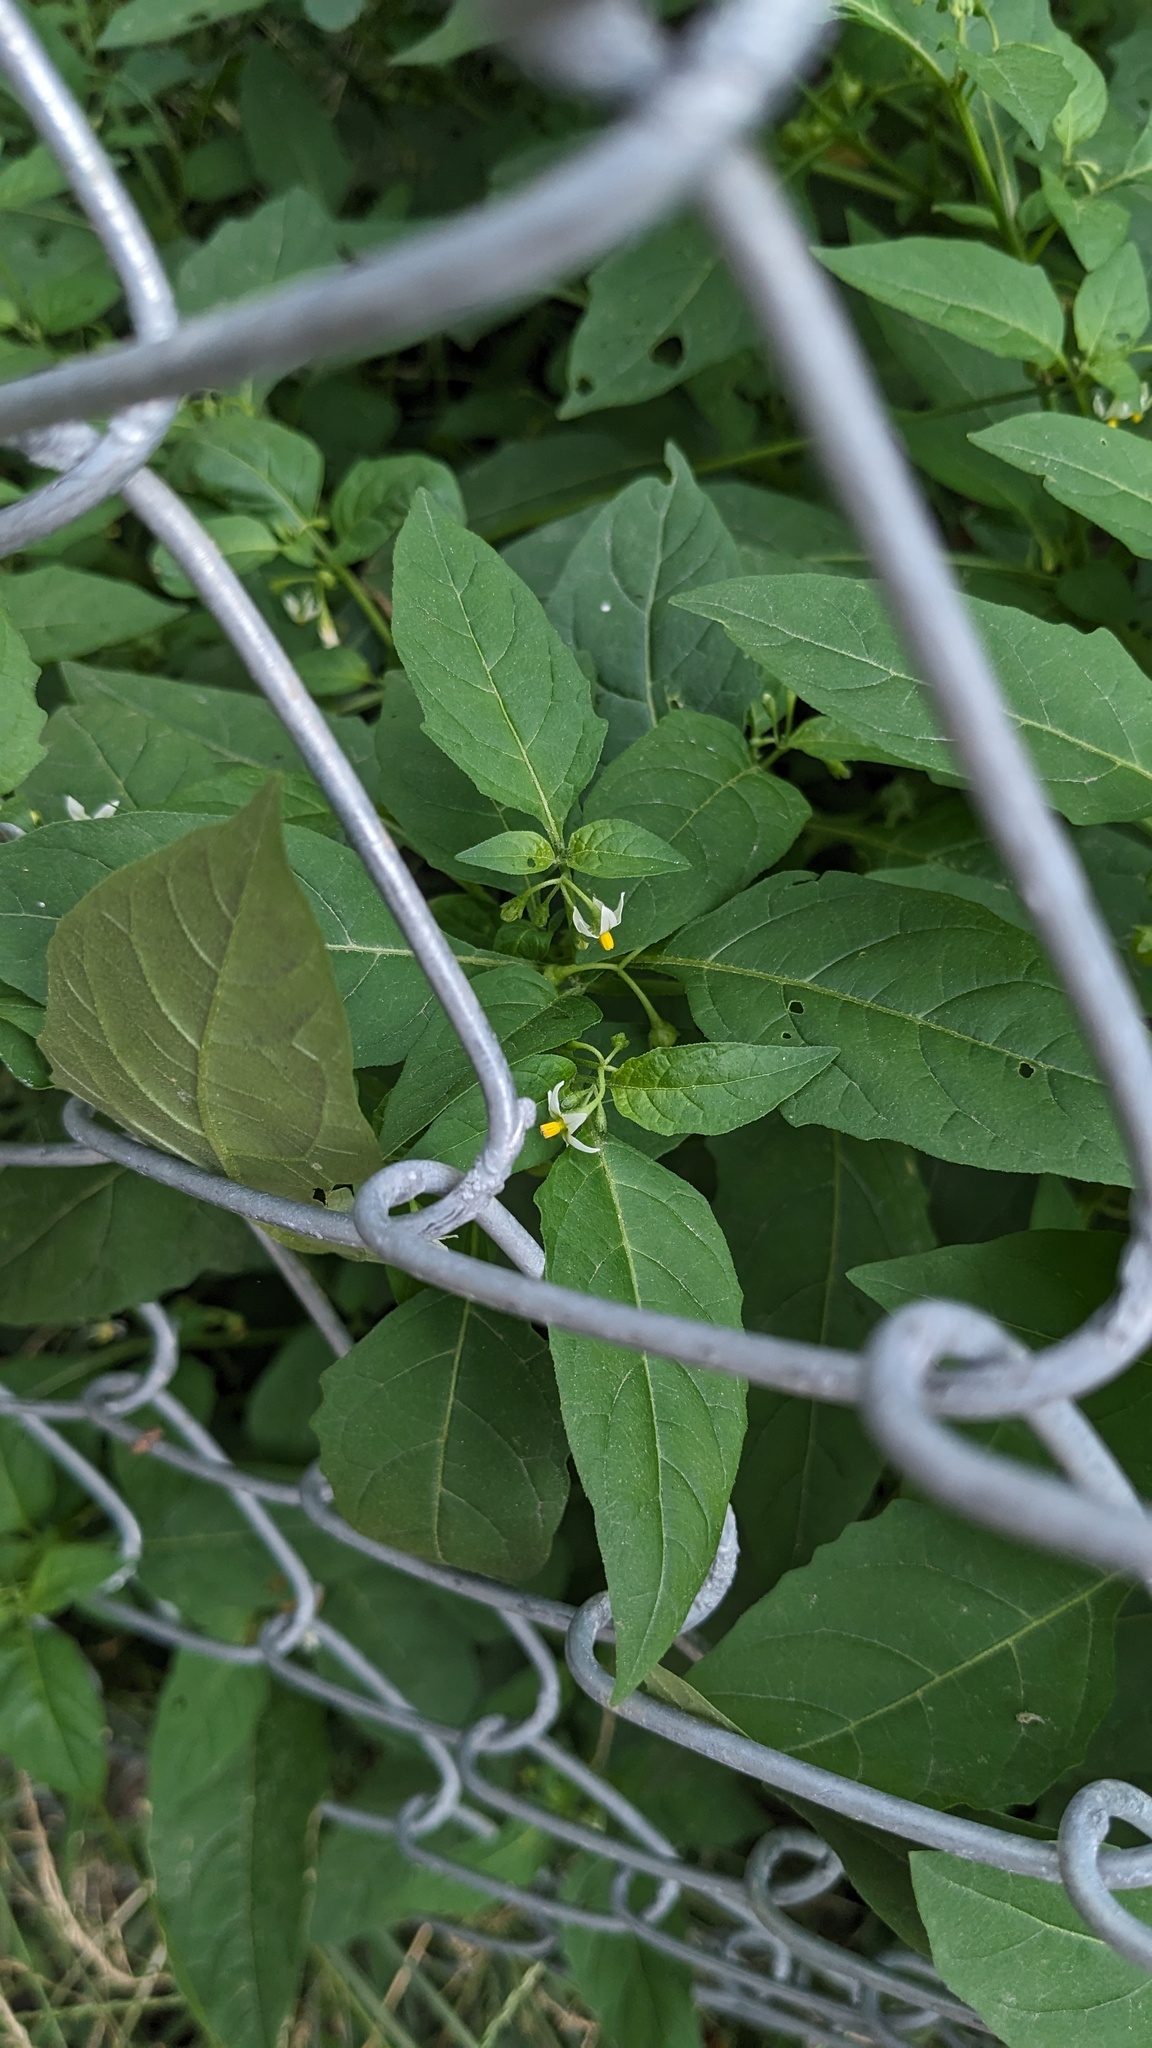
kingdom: Plantae
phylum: Tracheophyta
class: Magnoliopsida
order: Solanales
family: Solanaceae
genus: Solanum
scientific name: Solanum emulans
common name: Eastern black nightshade
